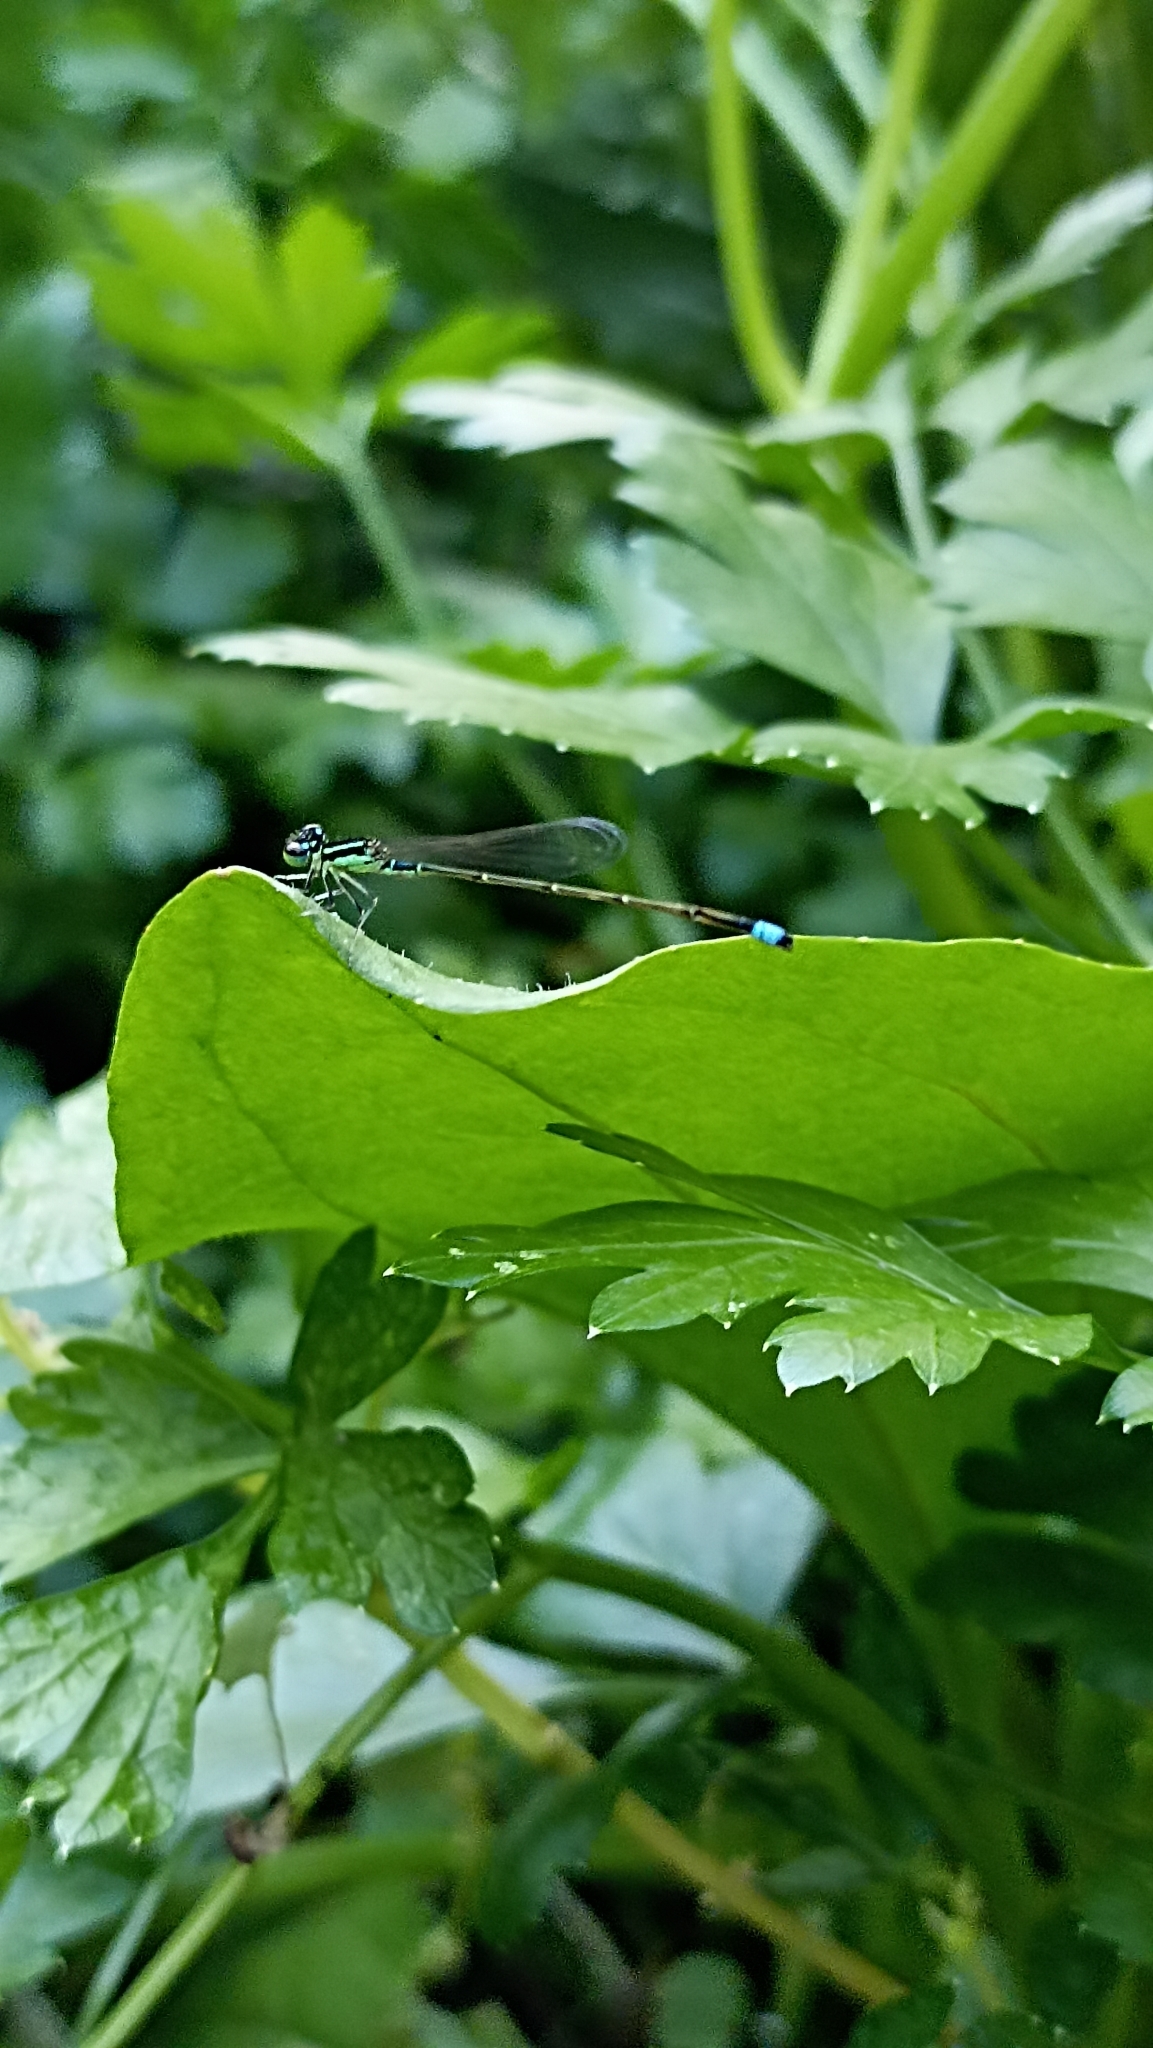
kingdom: Animalia
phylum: Arthropoda
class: Insecta
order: Odonata
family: Coenagrionidae
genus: Ischnura
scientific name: Ischnura capreolus
